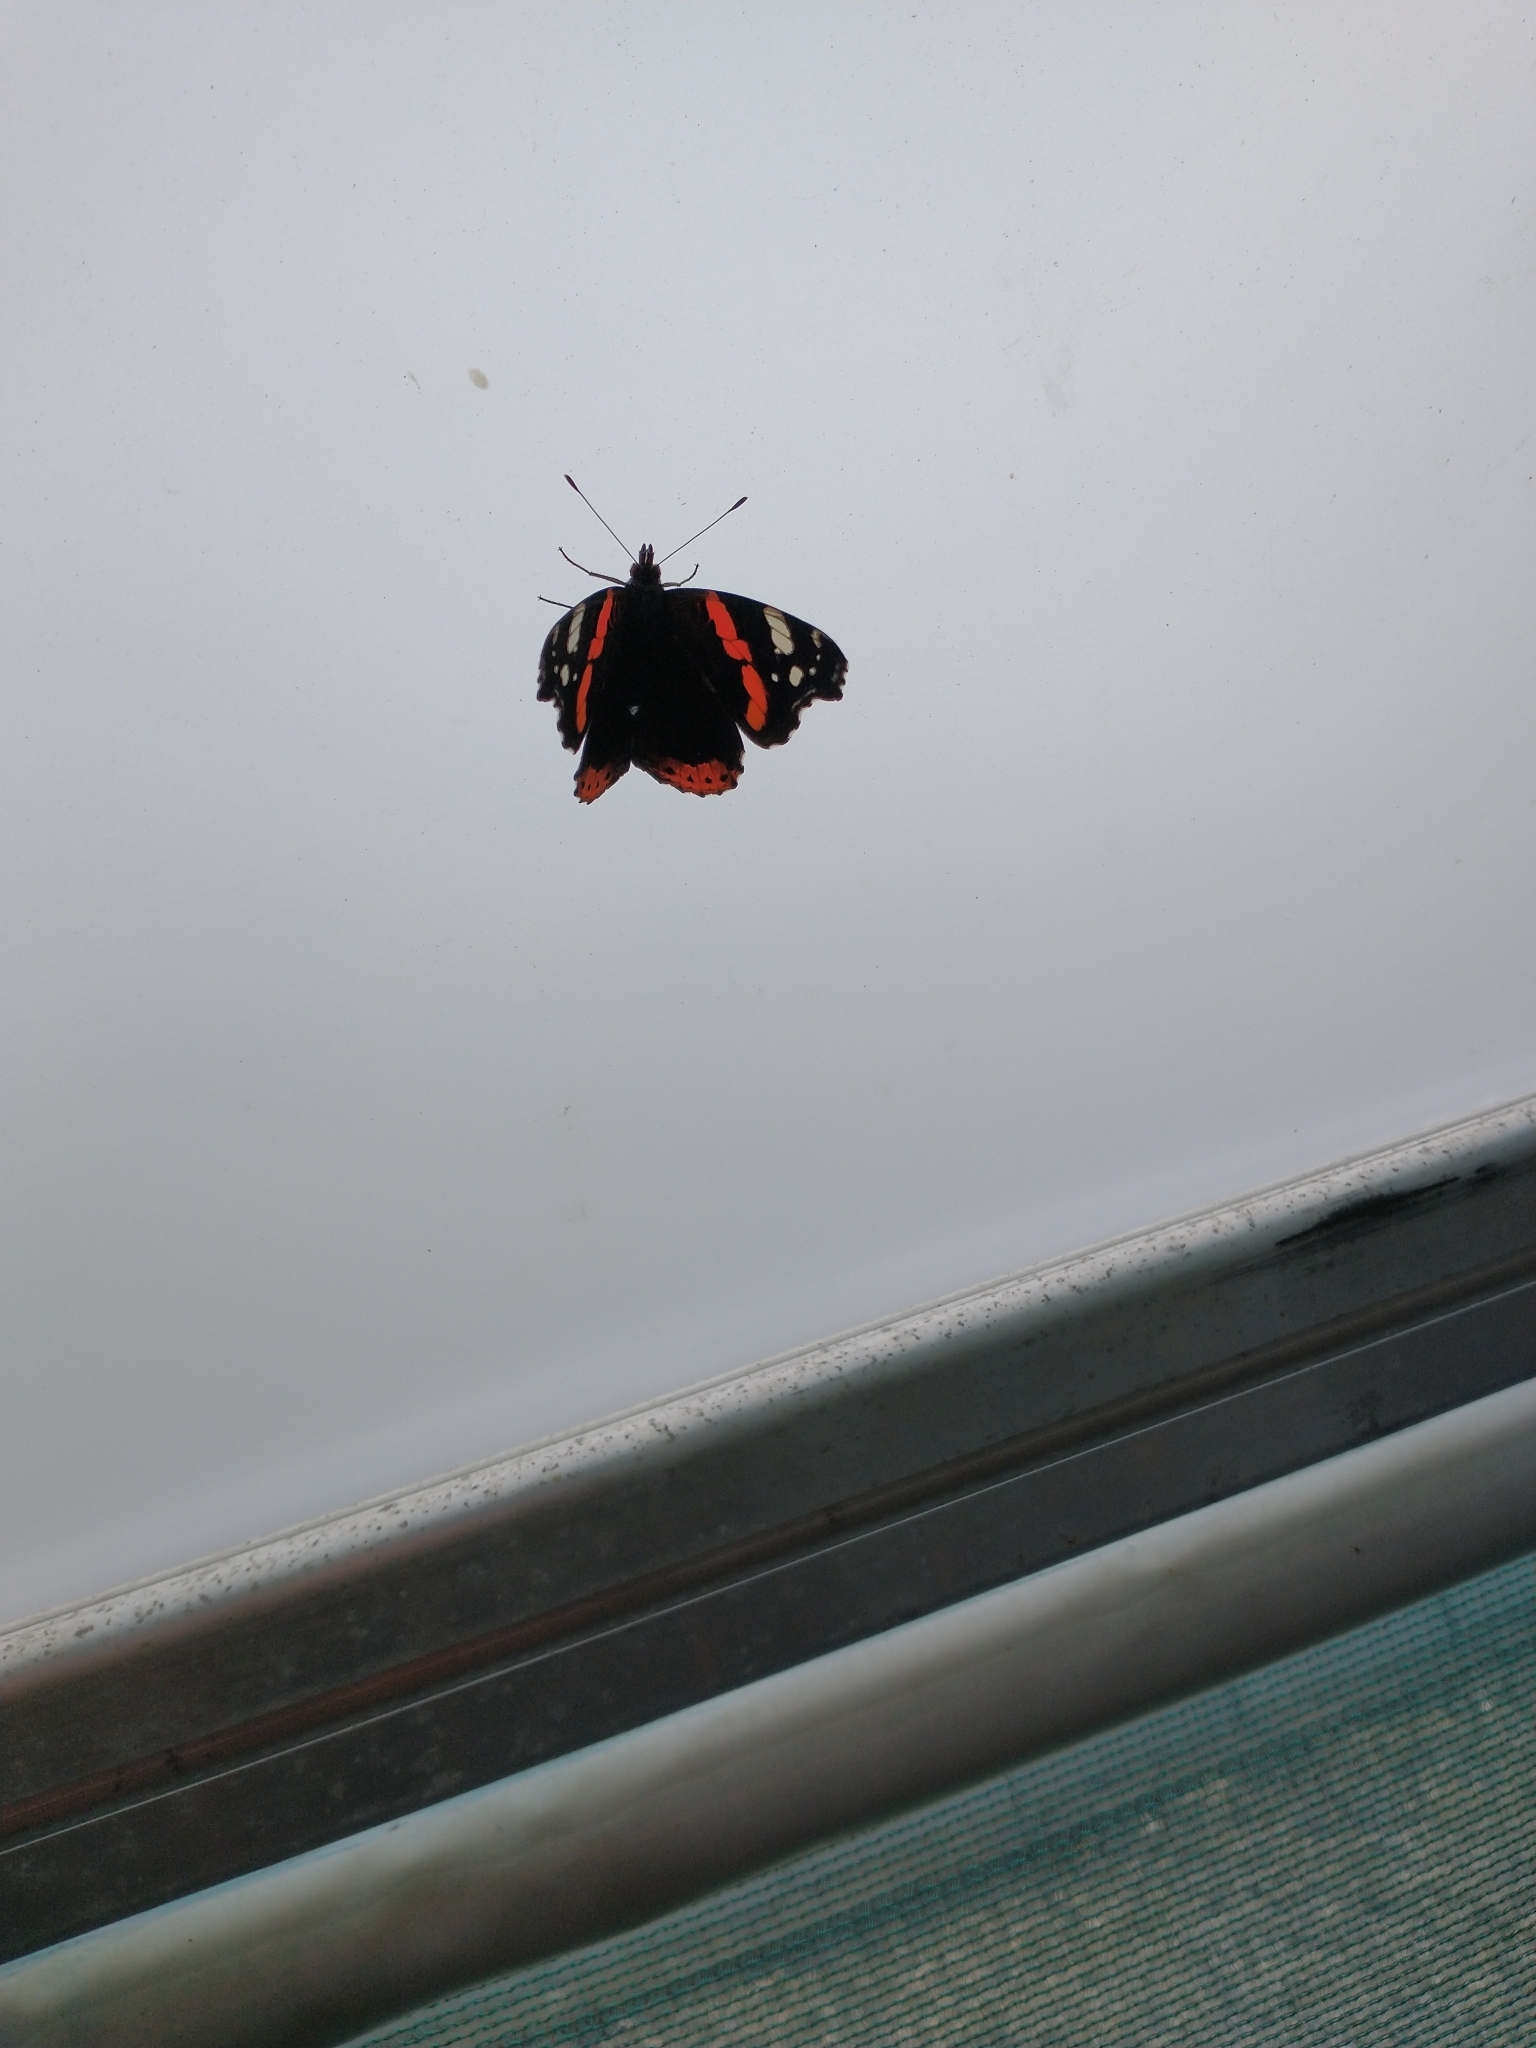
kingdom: Animalia
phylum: Arthropoda
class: Insecta
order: Lepidoptera
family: Nymphalidae
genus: Vanessa
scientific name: Vanessa atalanta
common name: Red admiral
